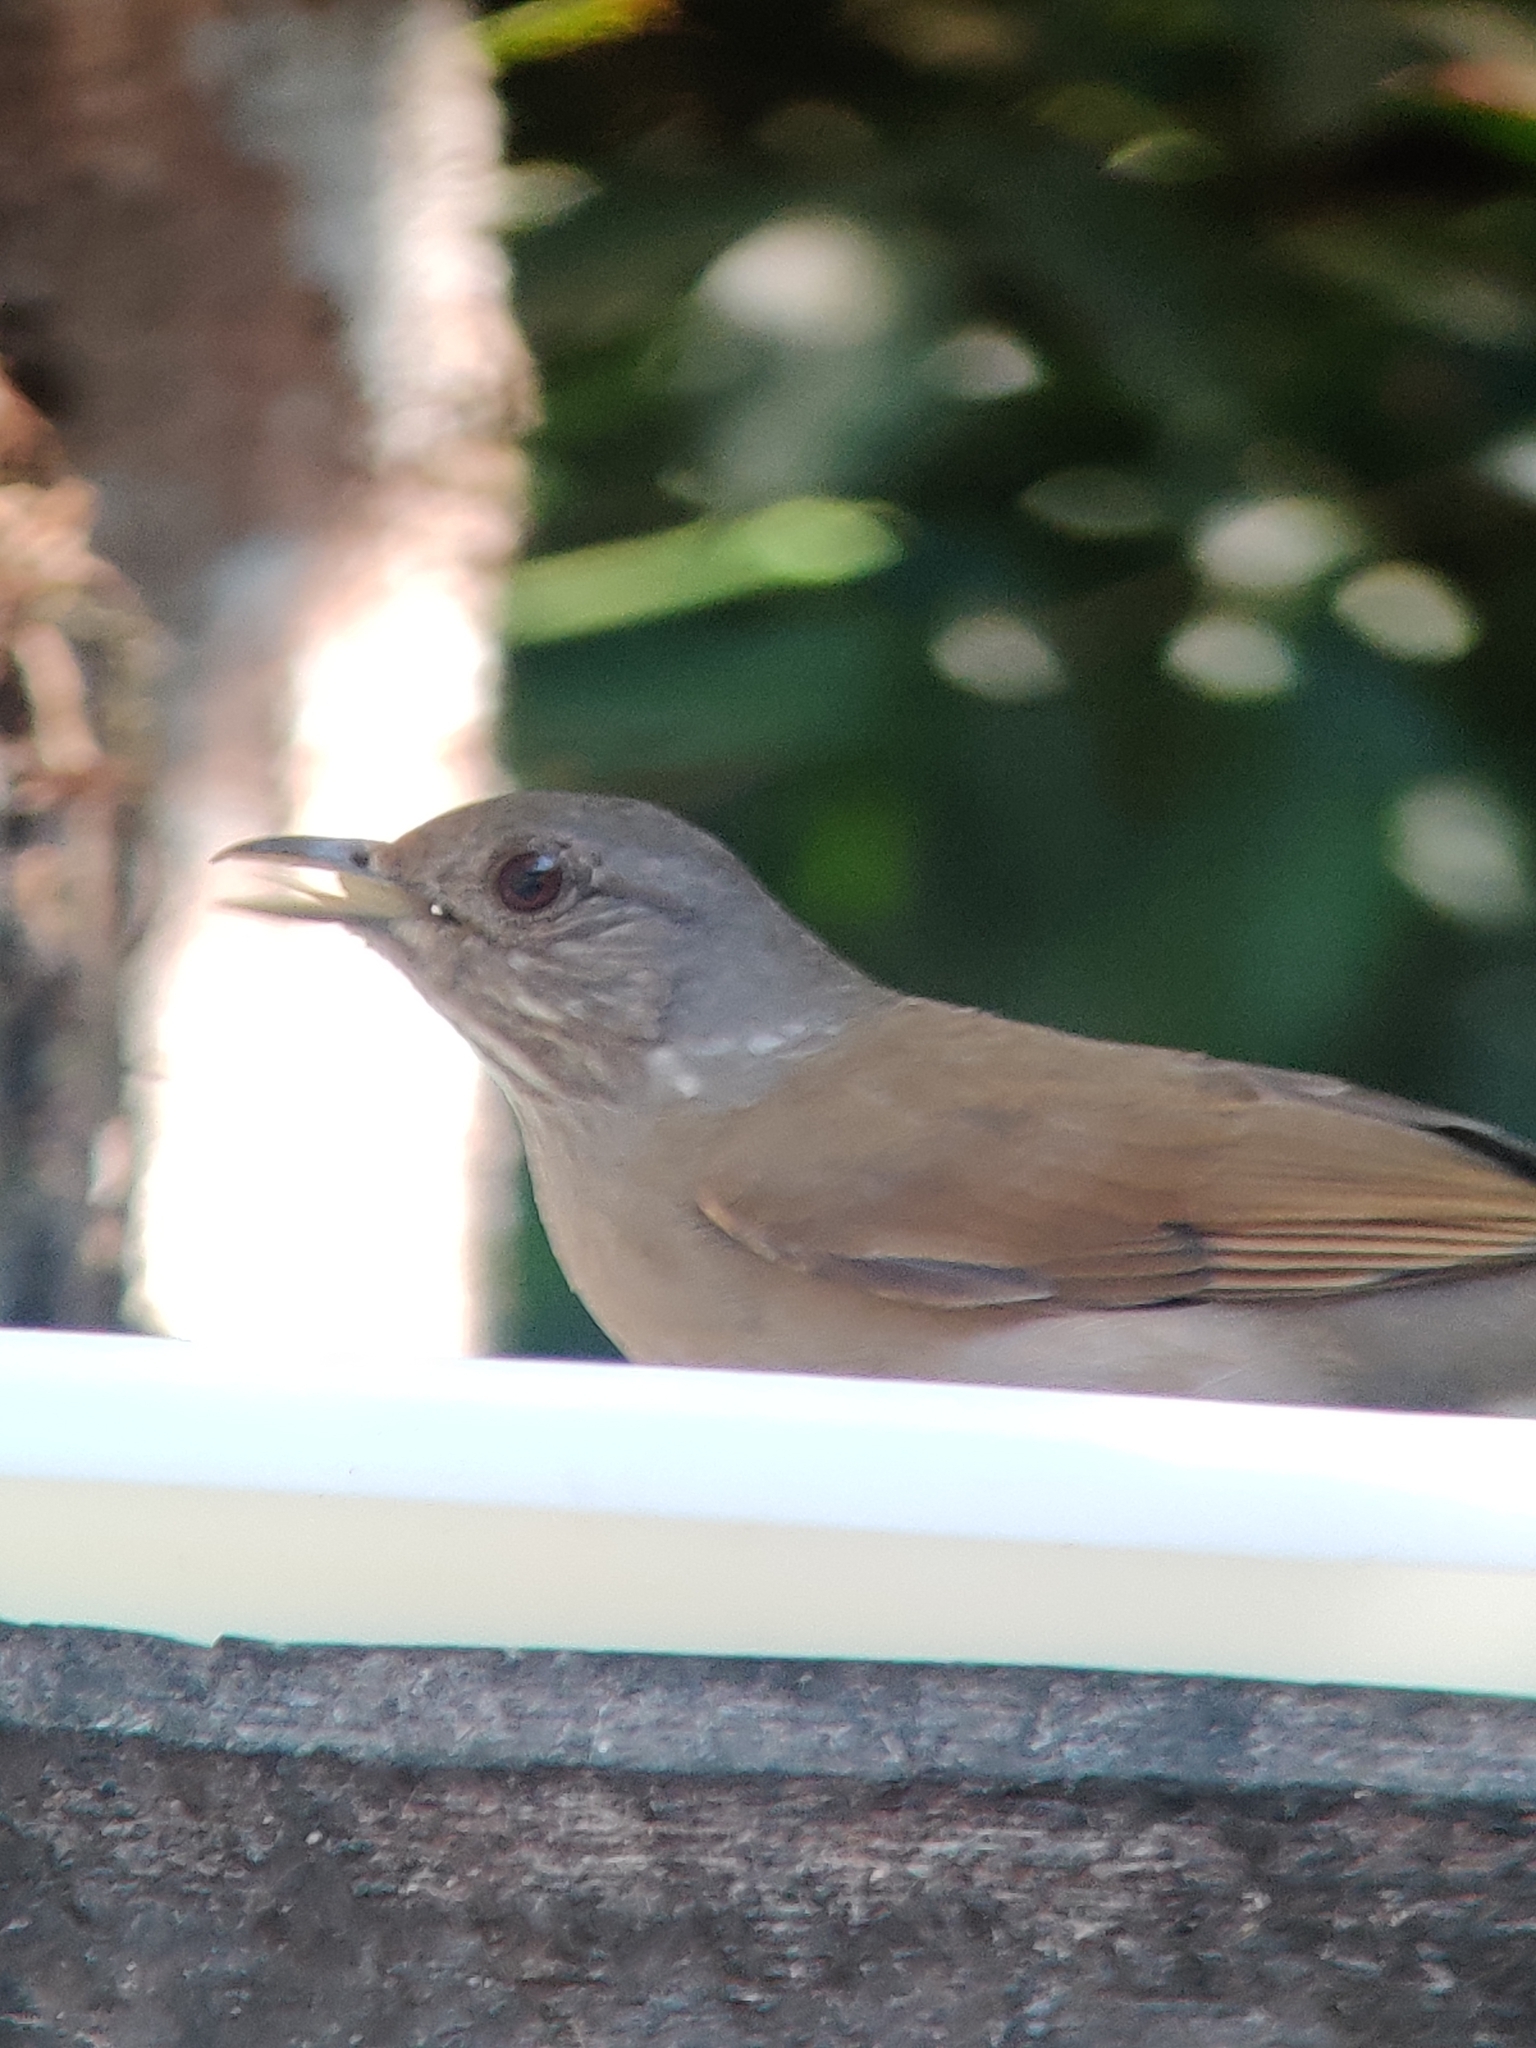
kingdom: Animalia
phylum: Chordata
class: Aves
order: Passeriformes
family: Turdidae
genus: Turdus
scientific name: Turdus leucomelas
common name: Pale-breasted thrush
